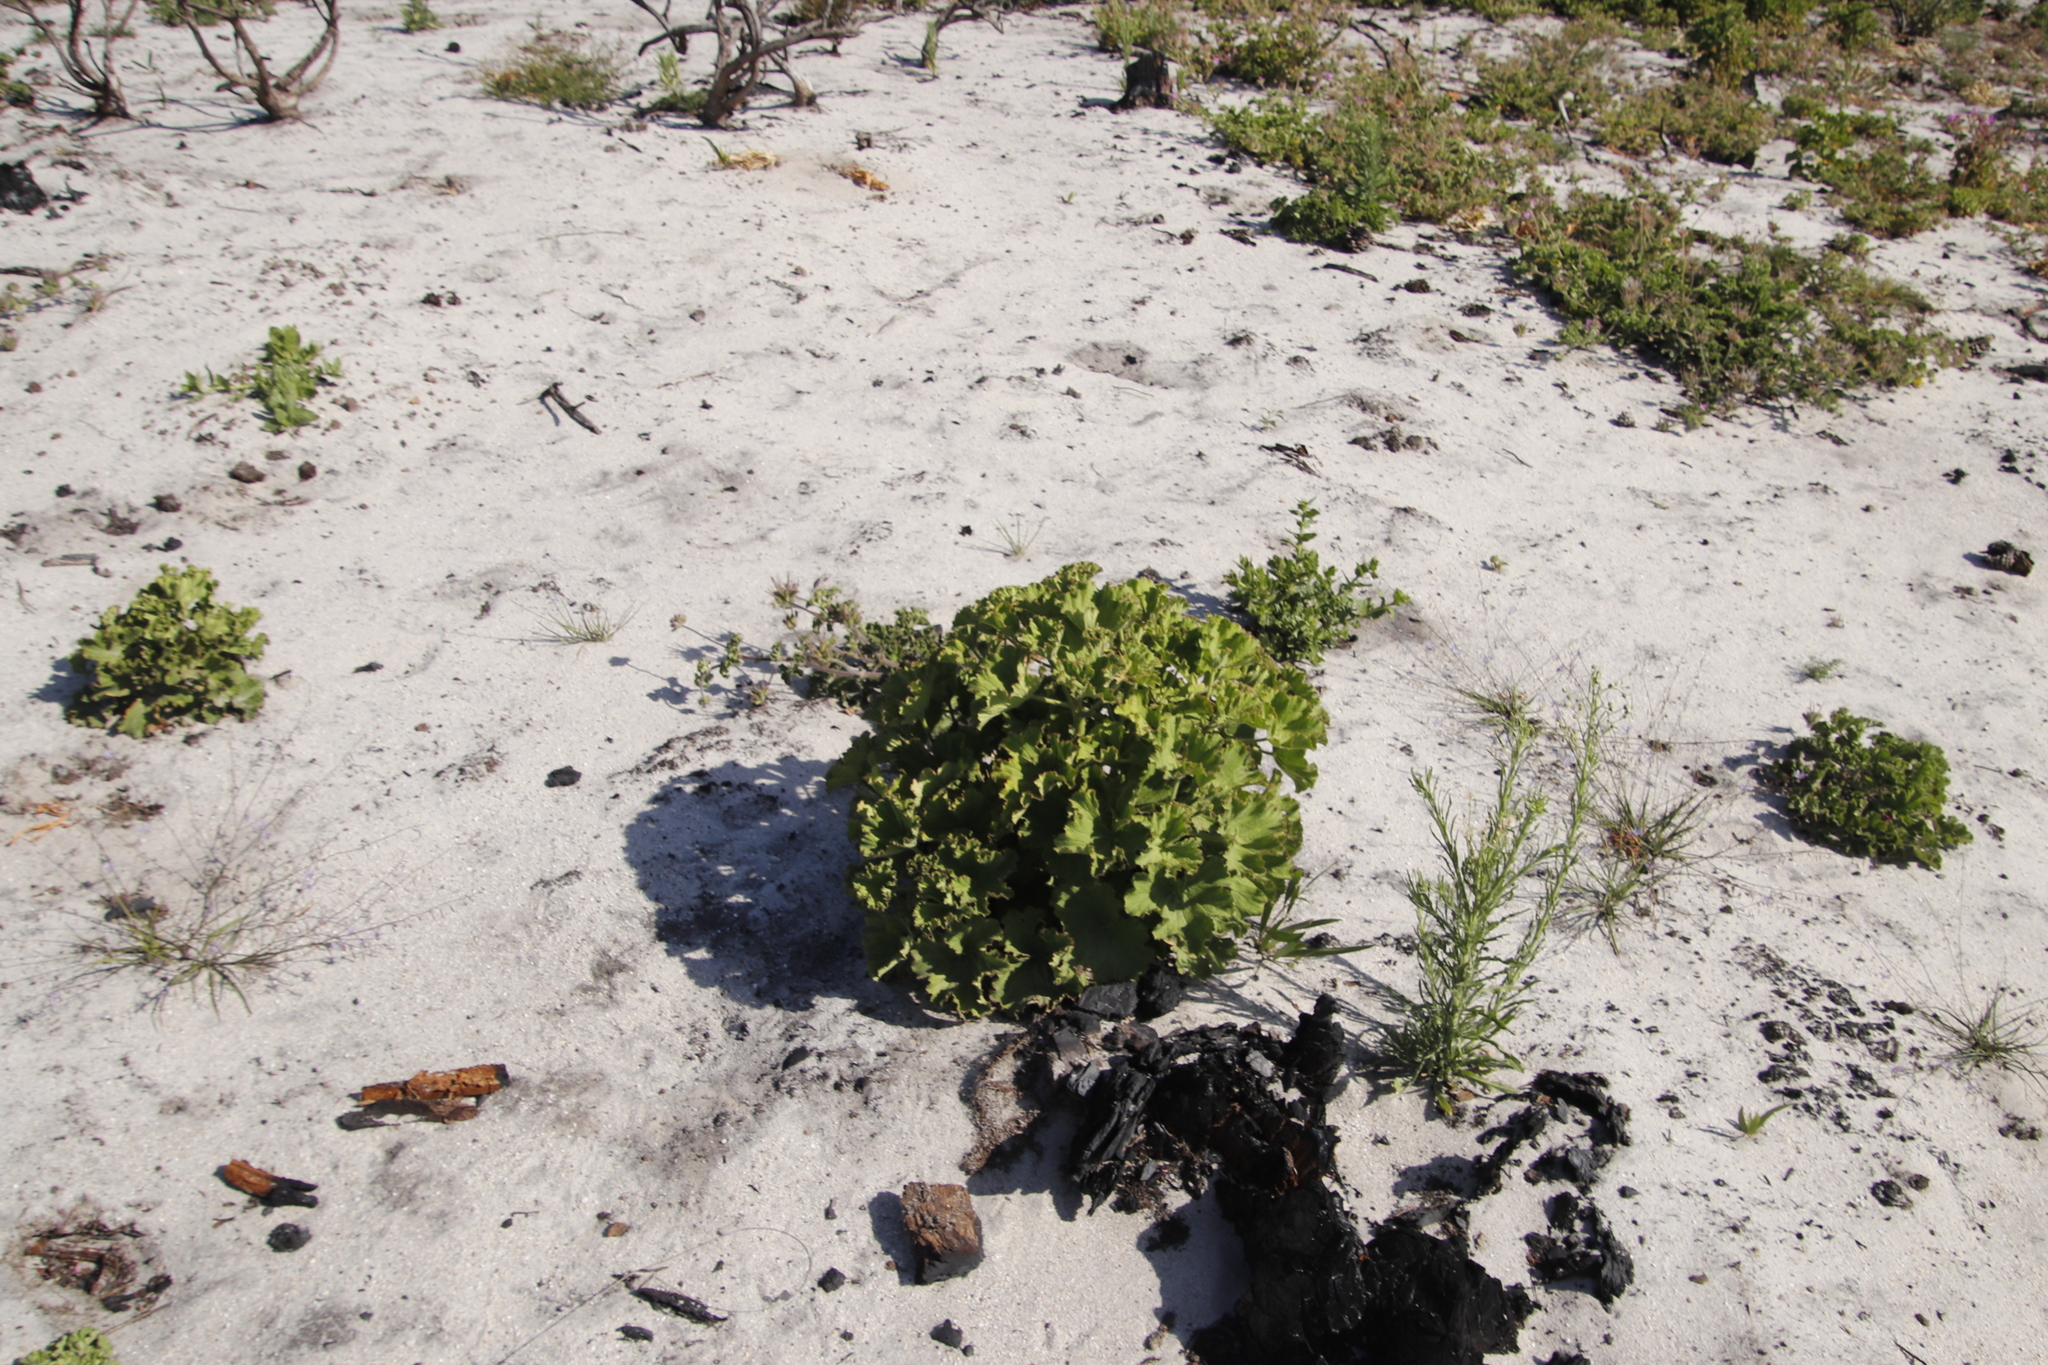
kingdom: Plantae
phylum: Tracheophyta
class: Magnoliopsida
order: Geraniales
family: Geraniaceae
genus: Pelargonium
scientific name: Pelargonium cucullatum
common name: Tree pelargonium
